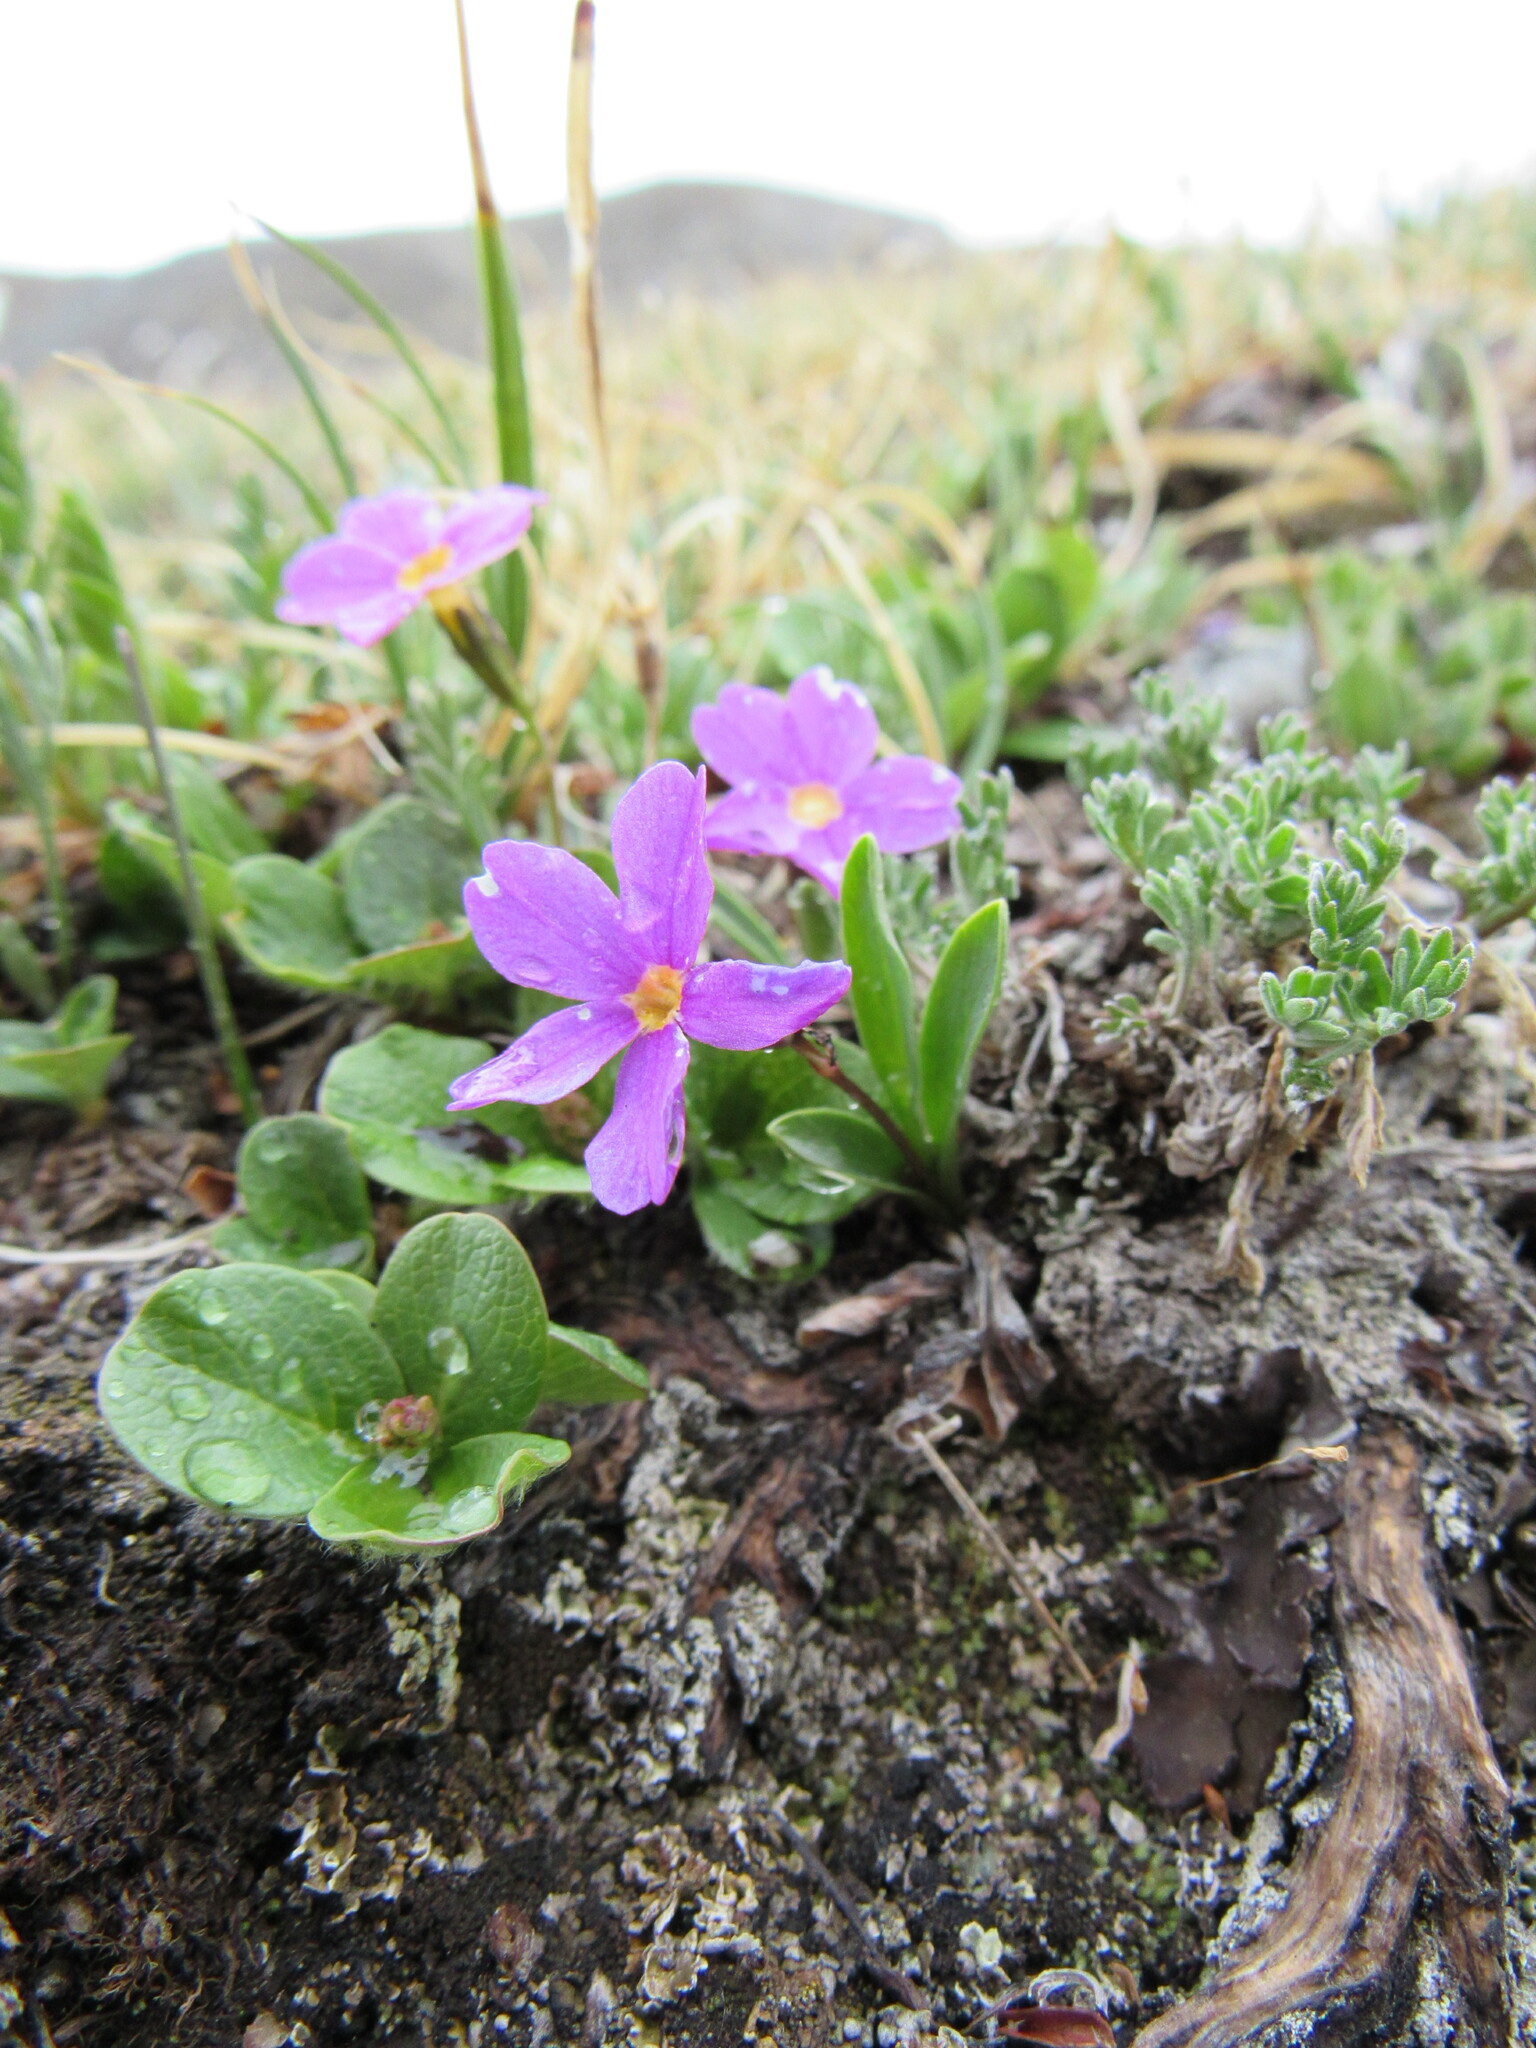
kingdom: Plantae
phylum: Tracheophyta
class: Magnoliopsida
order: Ericales
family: Primulaceae
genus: Primula
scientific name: Primula angustifolia
